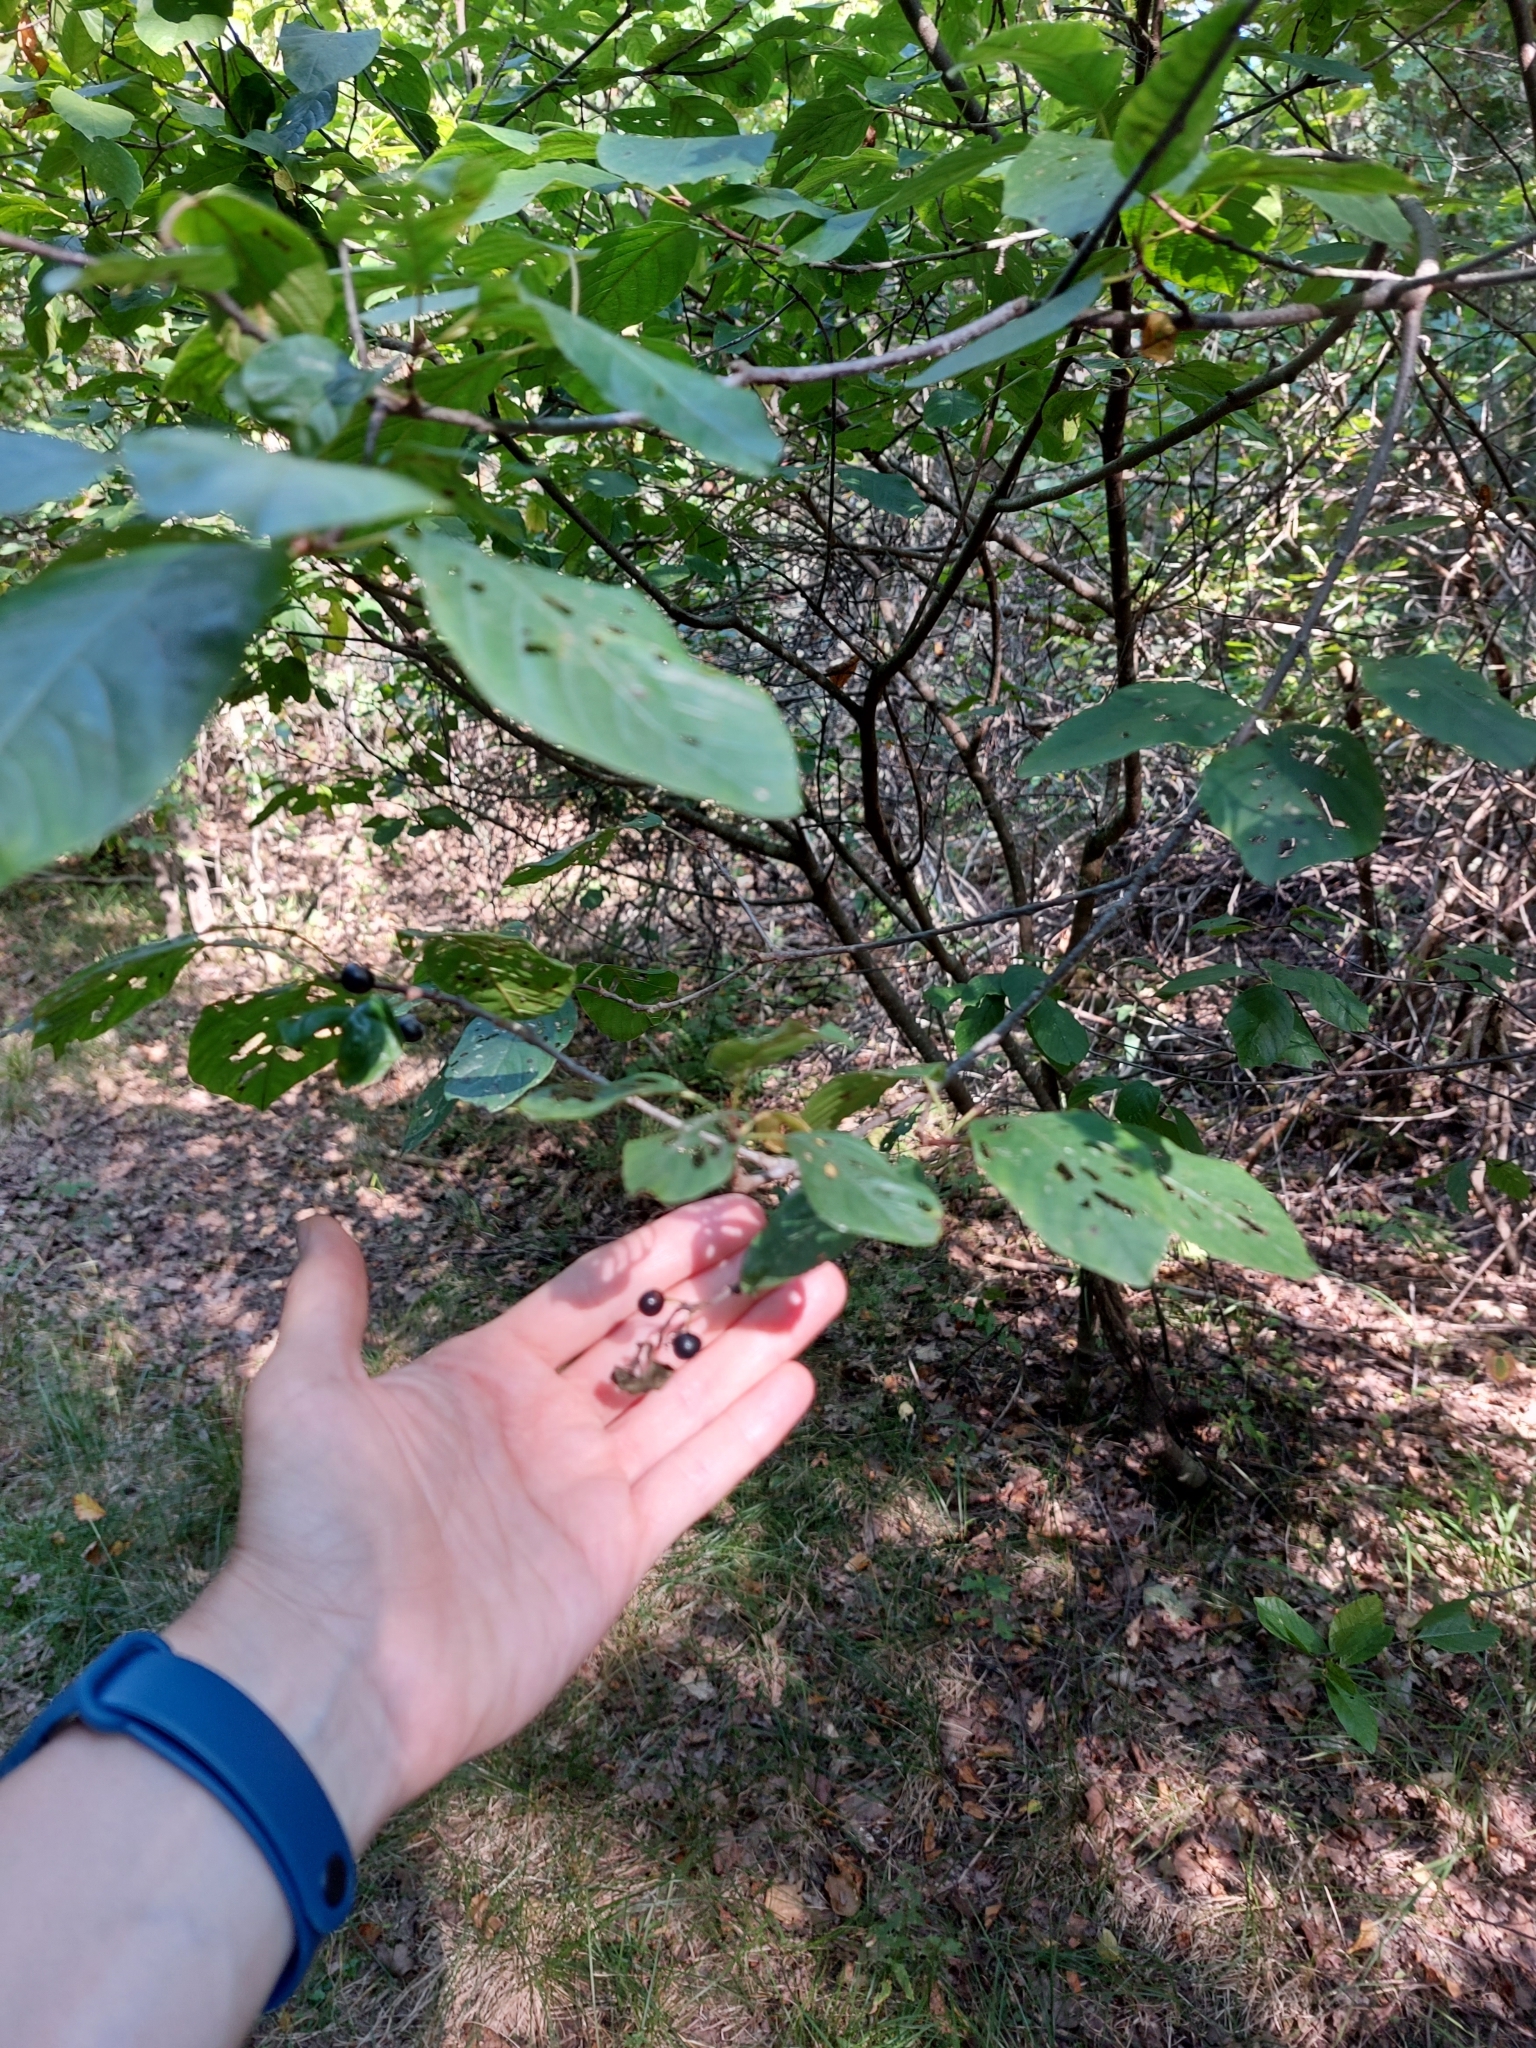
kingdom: Plantae
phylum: Tracheophyta
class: Magnoliopsida
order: Rosales
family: Rhamnaceae
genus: Frangula
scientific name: Frangula alnus
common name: Alder buckthorn
